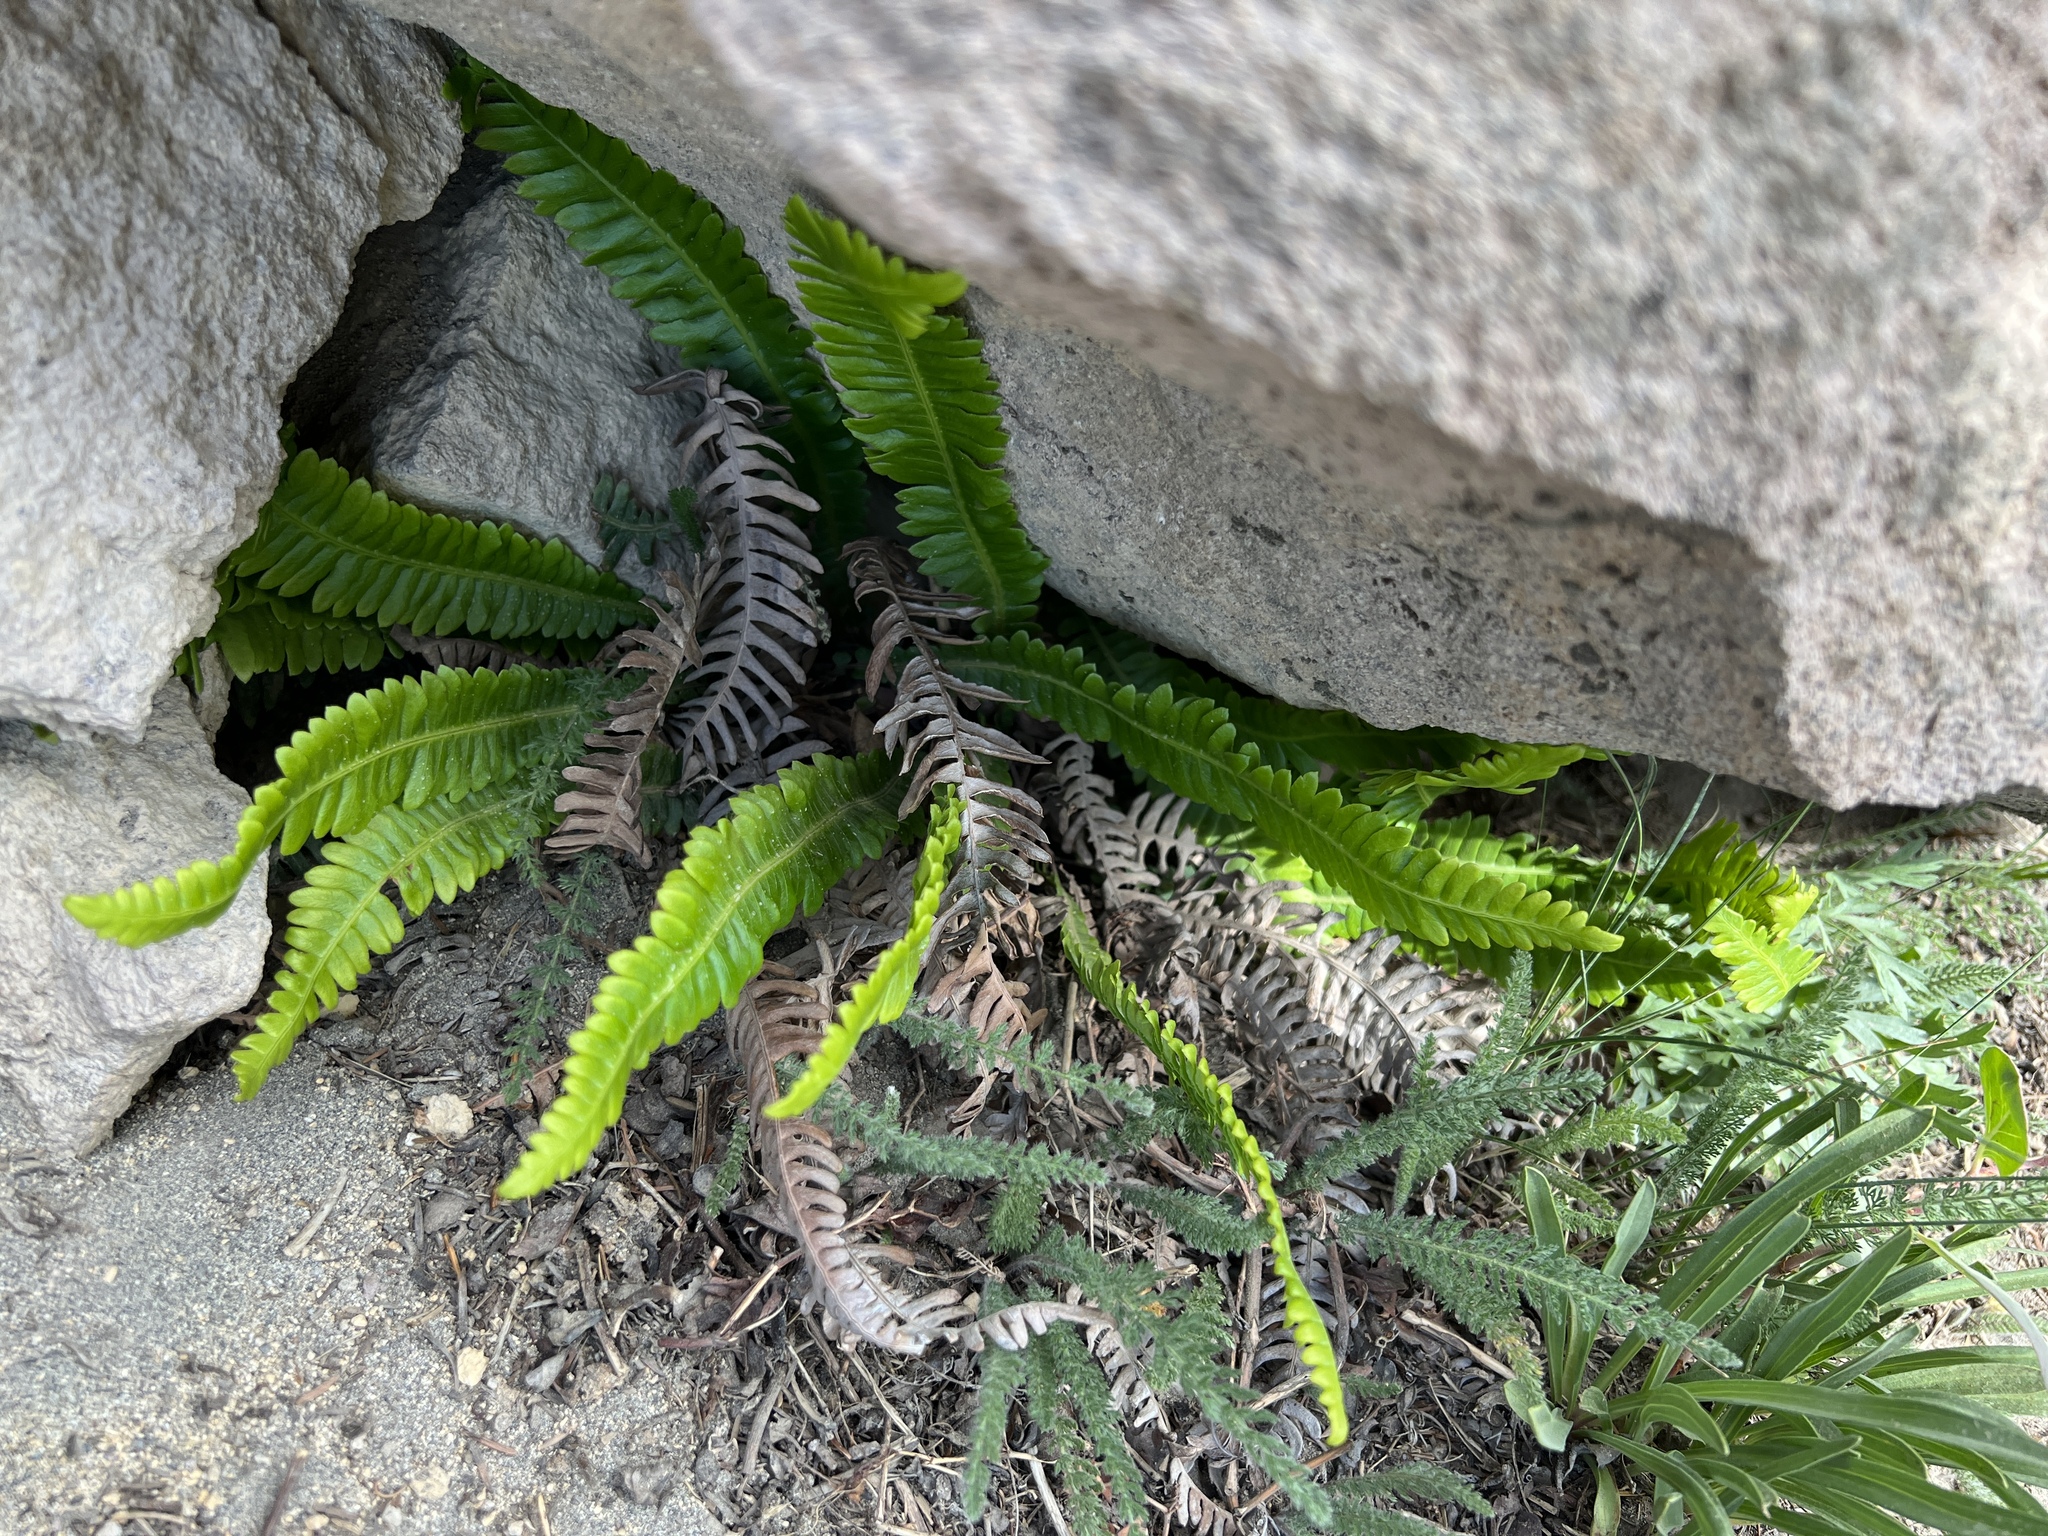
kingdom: Plantae
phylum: Tracheophyta
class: Polypodiopsida
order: Polypodiales
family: Blechnaceae
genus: Struthiopteris
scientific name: Struthiopteris spicant
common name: Deer fern
